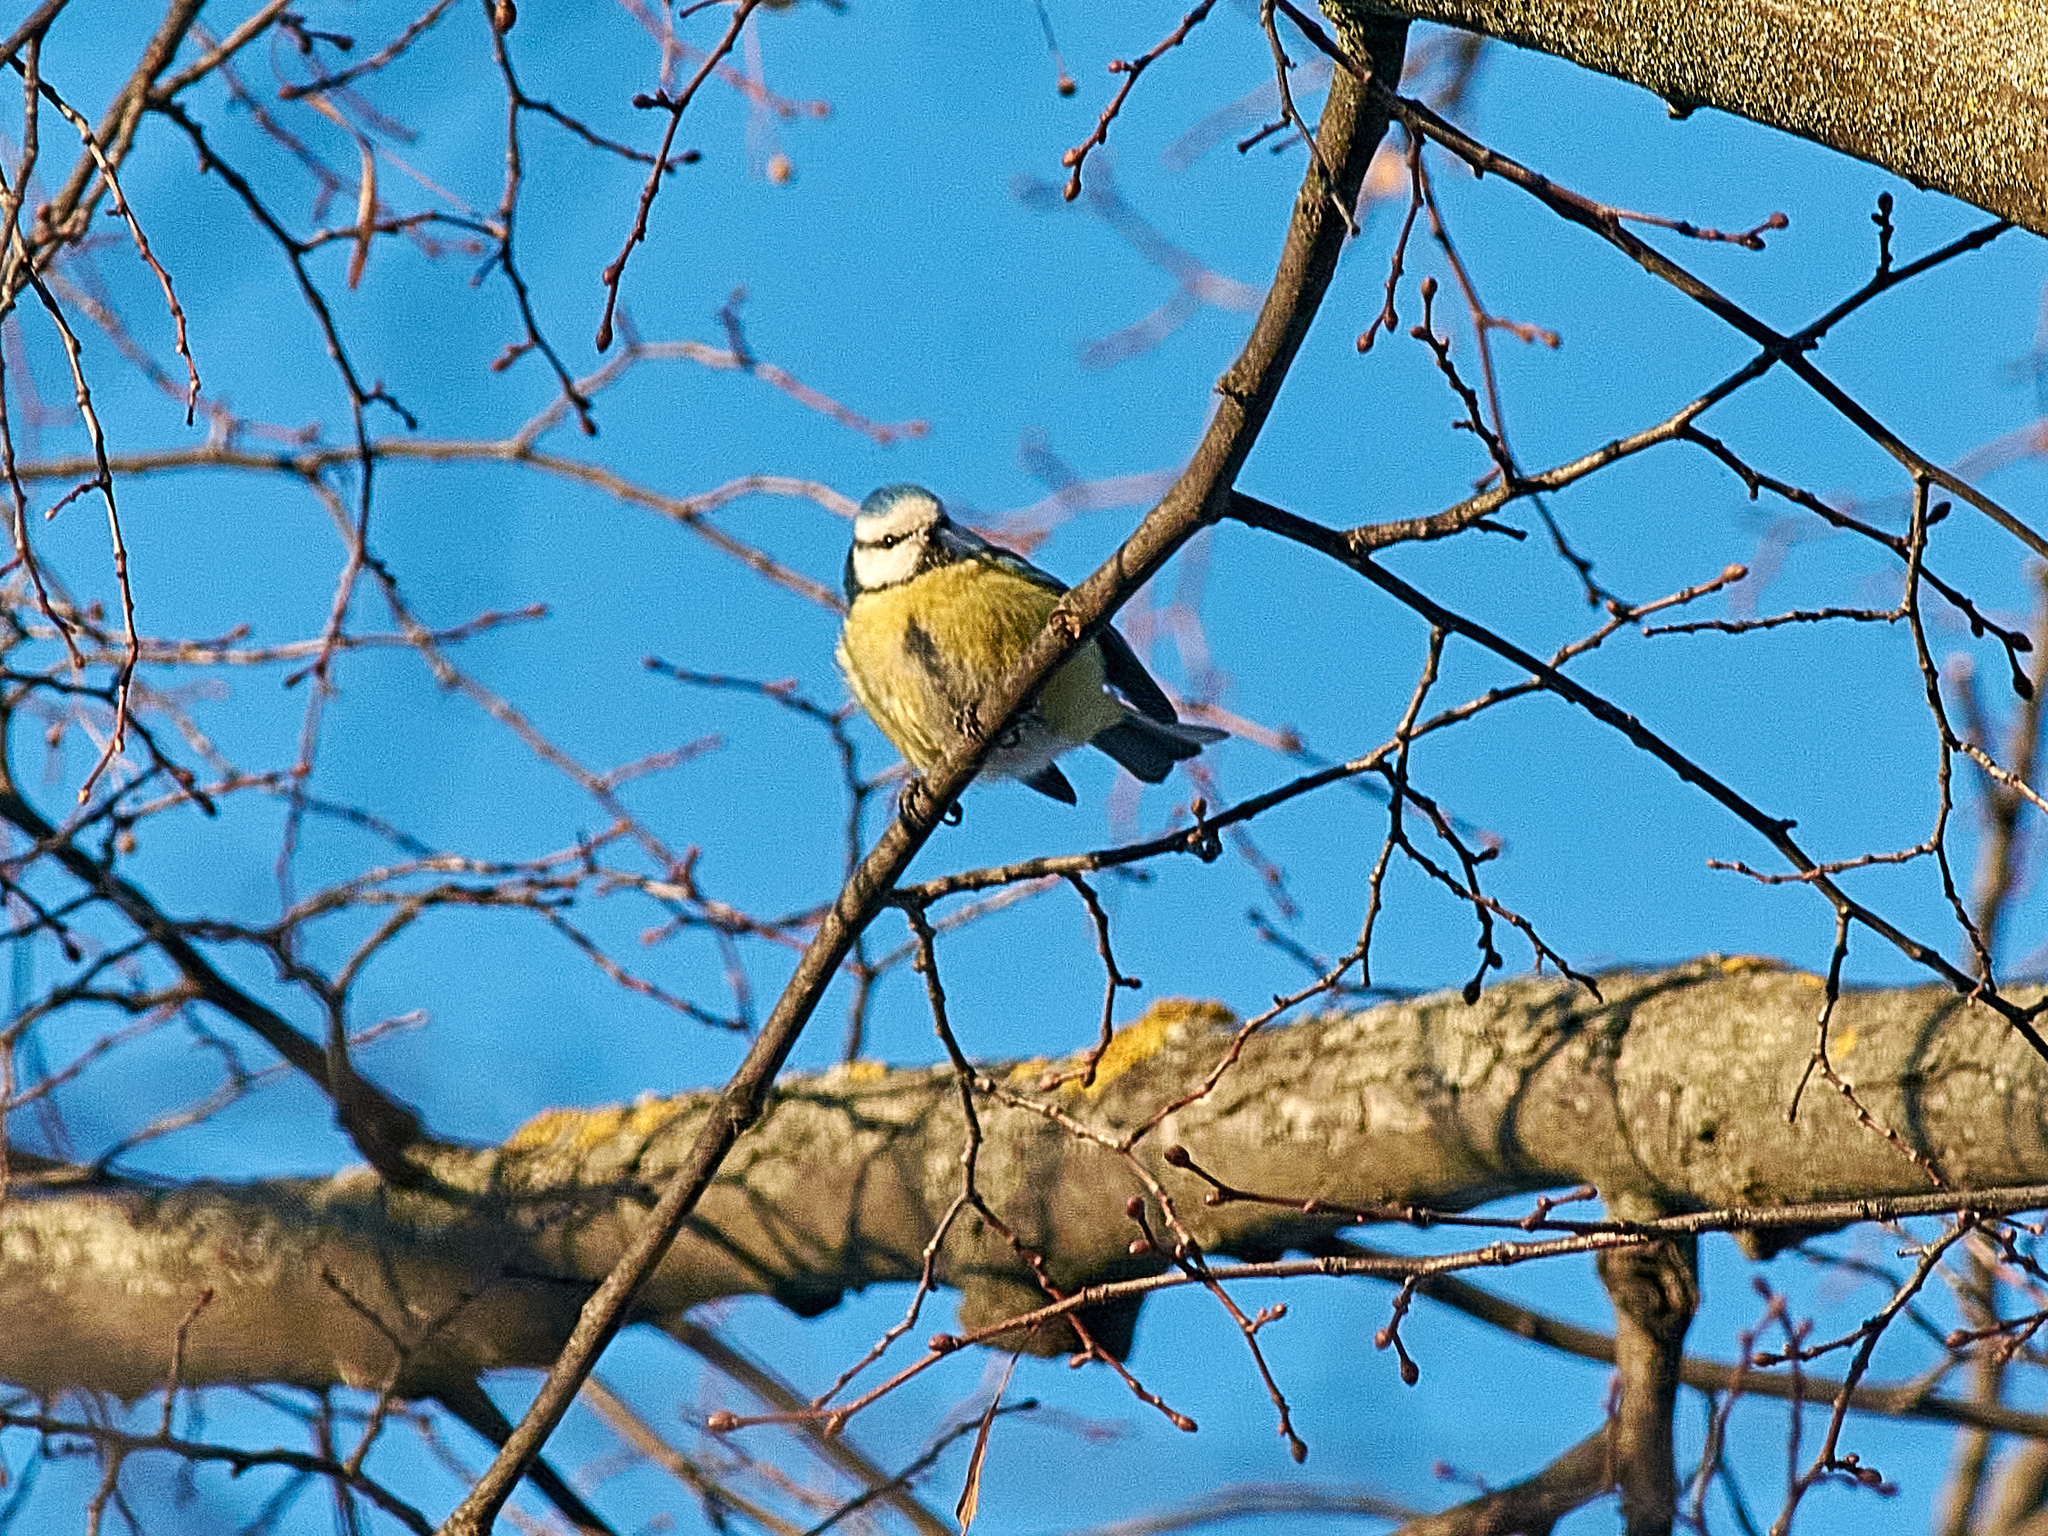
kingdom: Animalia
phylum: Chordata
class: Aves
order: Passeriformes
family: Paridae
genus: Cyanistes
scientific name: Cyanistes caeruleus
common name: Eurasian blue tit
